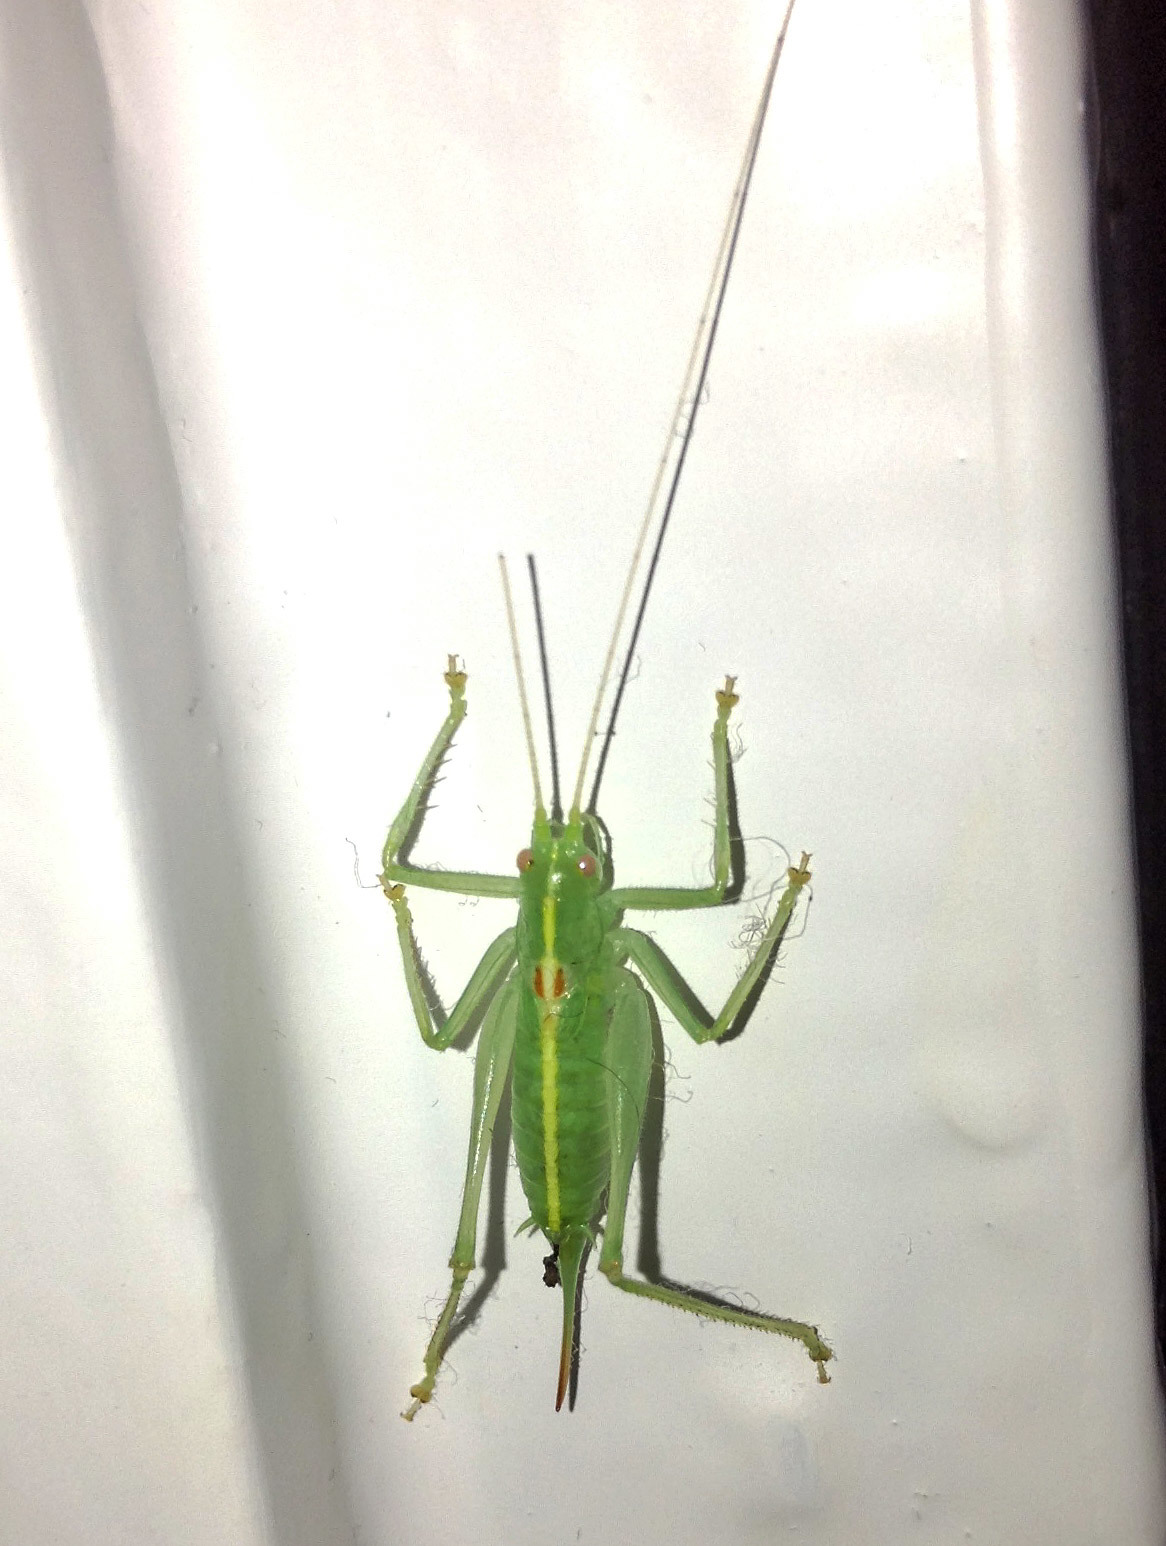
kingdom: Animalia
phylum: Arthropoda
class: Insecta
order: Orthoptera
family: Tettigoniidae
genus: Meconema
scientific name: Meconema meridionale
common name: Southern oak bush-cricket
